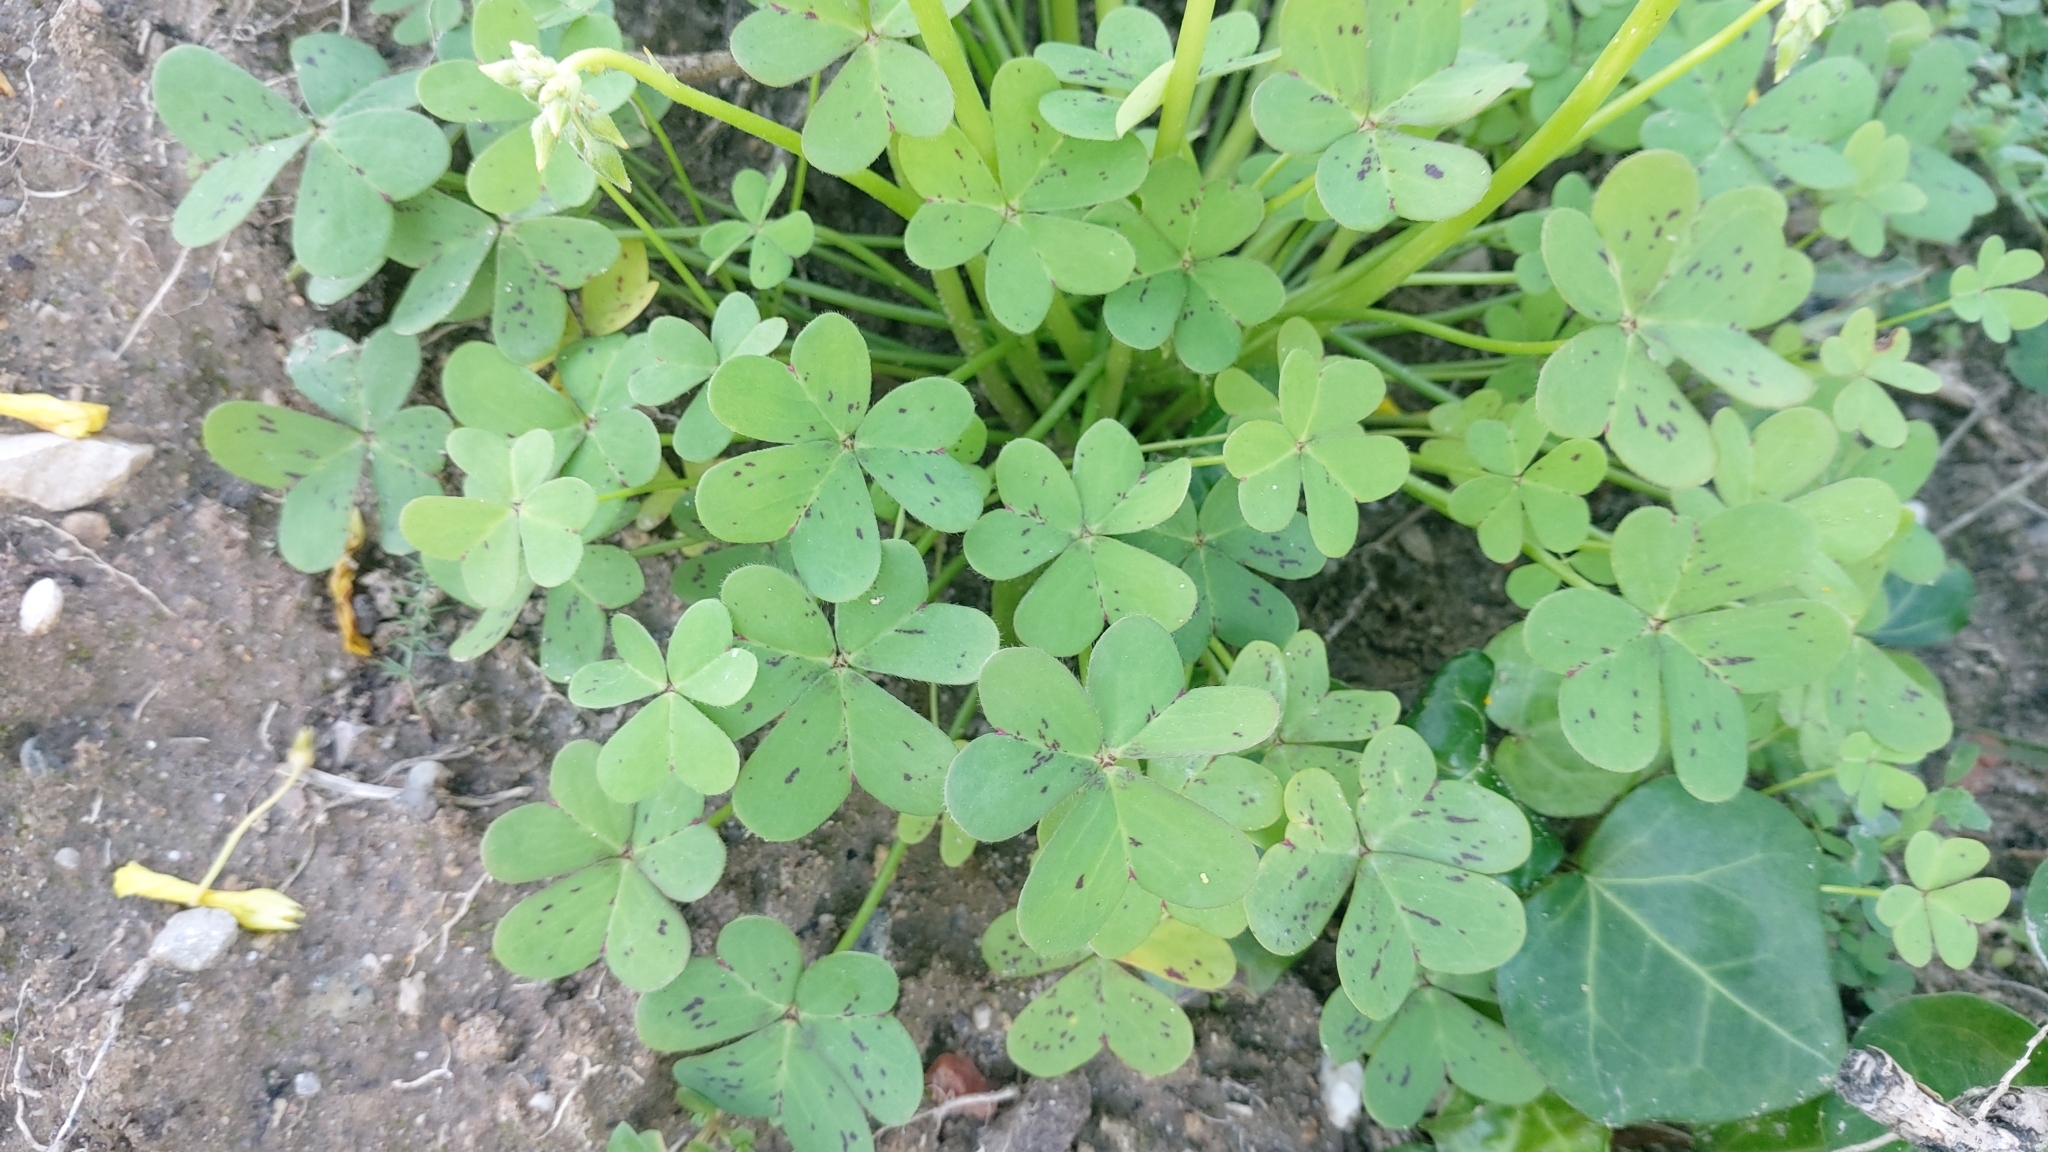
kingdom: Plantae
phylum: Tracheophyta
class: Magnoliopsida
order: Oxalidales
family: Oxalidaceae
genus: Oxalis
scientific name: Oxalis pes-caprae
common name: Bermuda-buttercup
